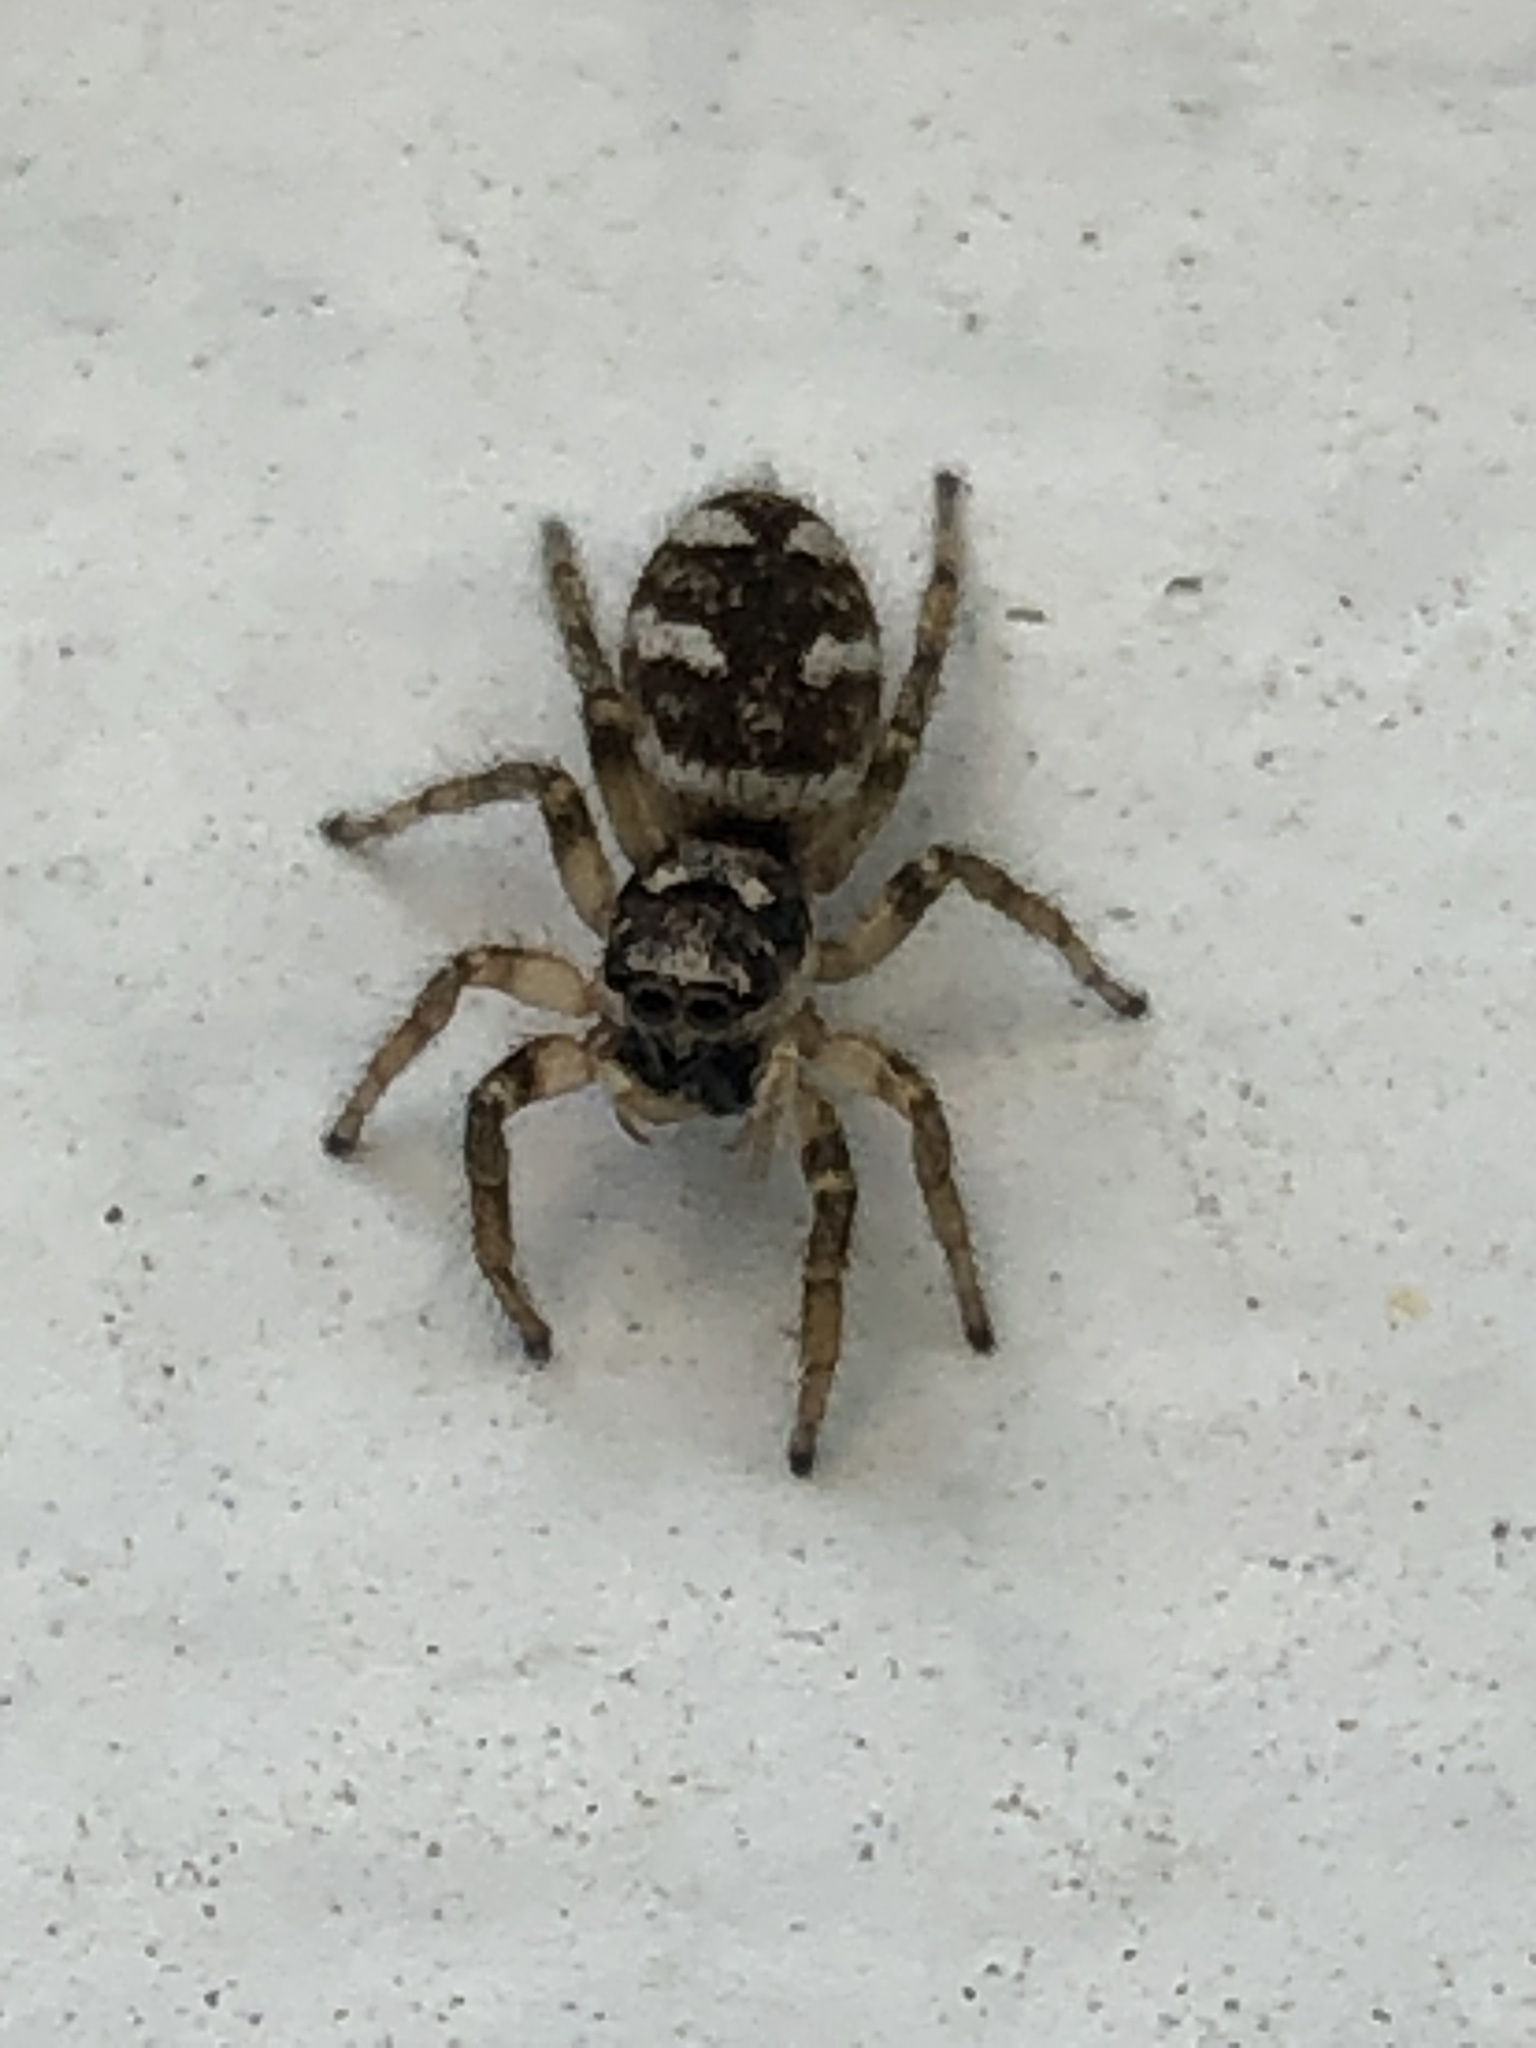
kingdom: Animalia
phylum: Arthropoda
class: Arachnida
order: Araneae
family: Salticidae
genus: Salticus
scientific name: Salticus scenicus
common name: Zebra jumper
